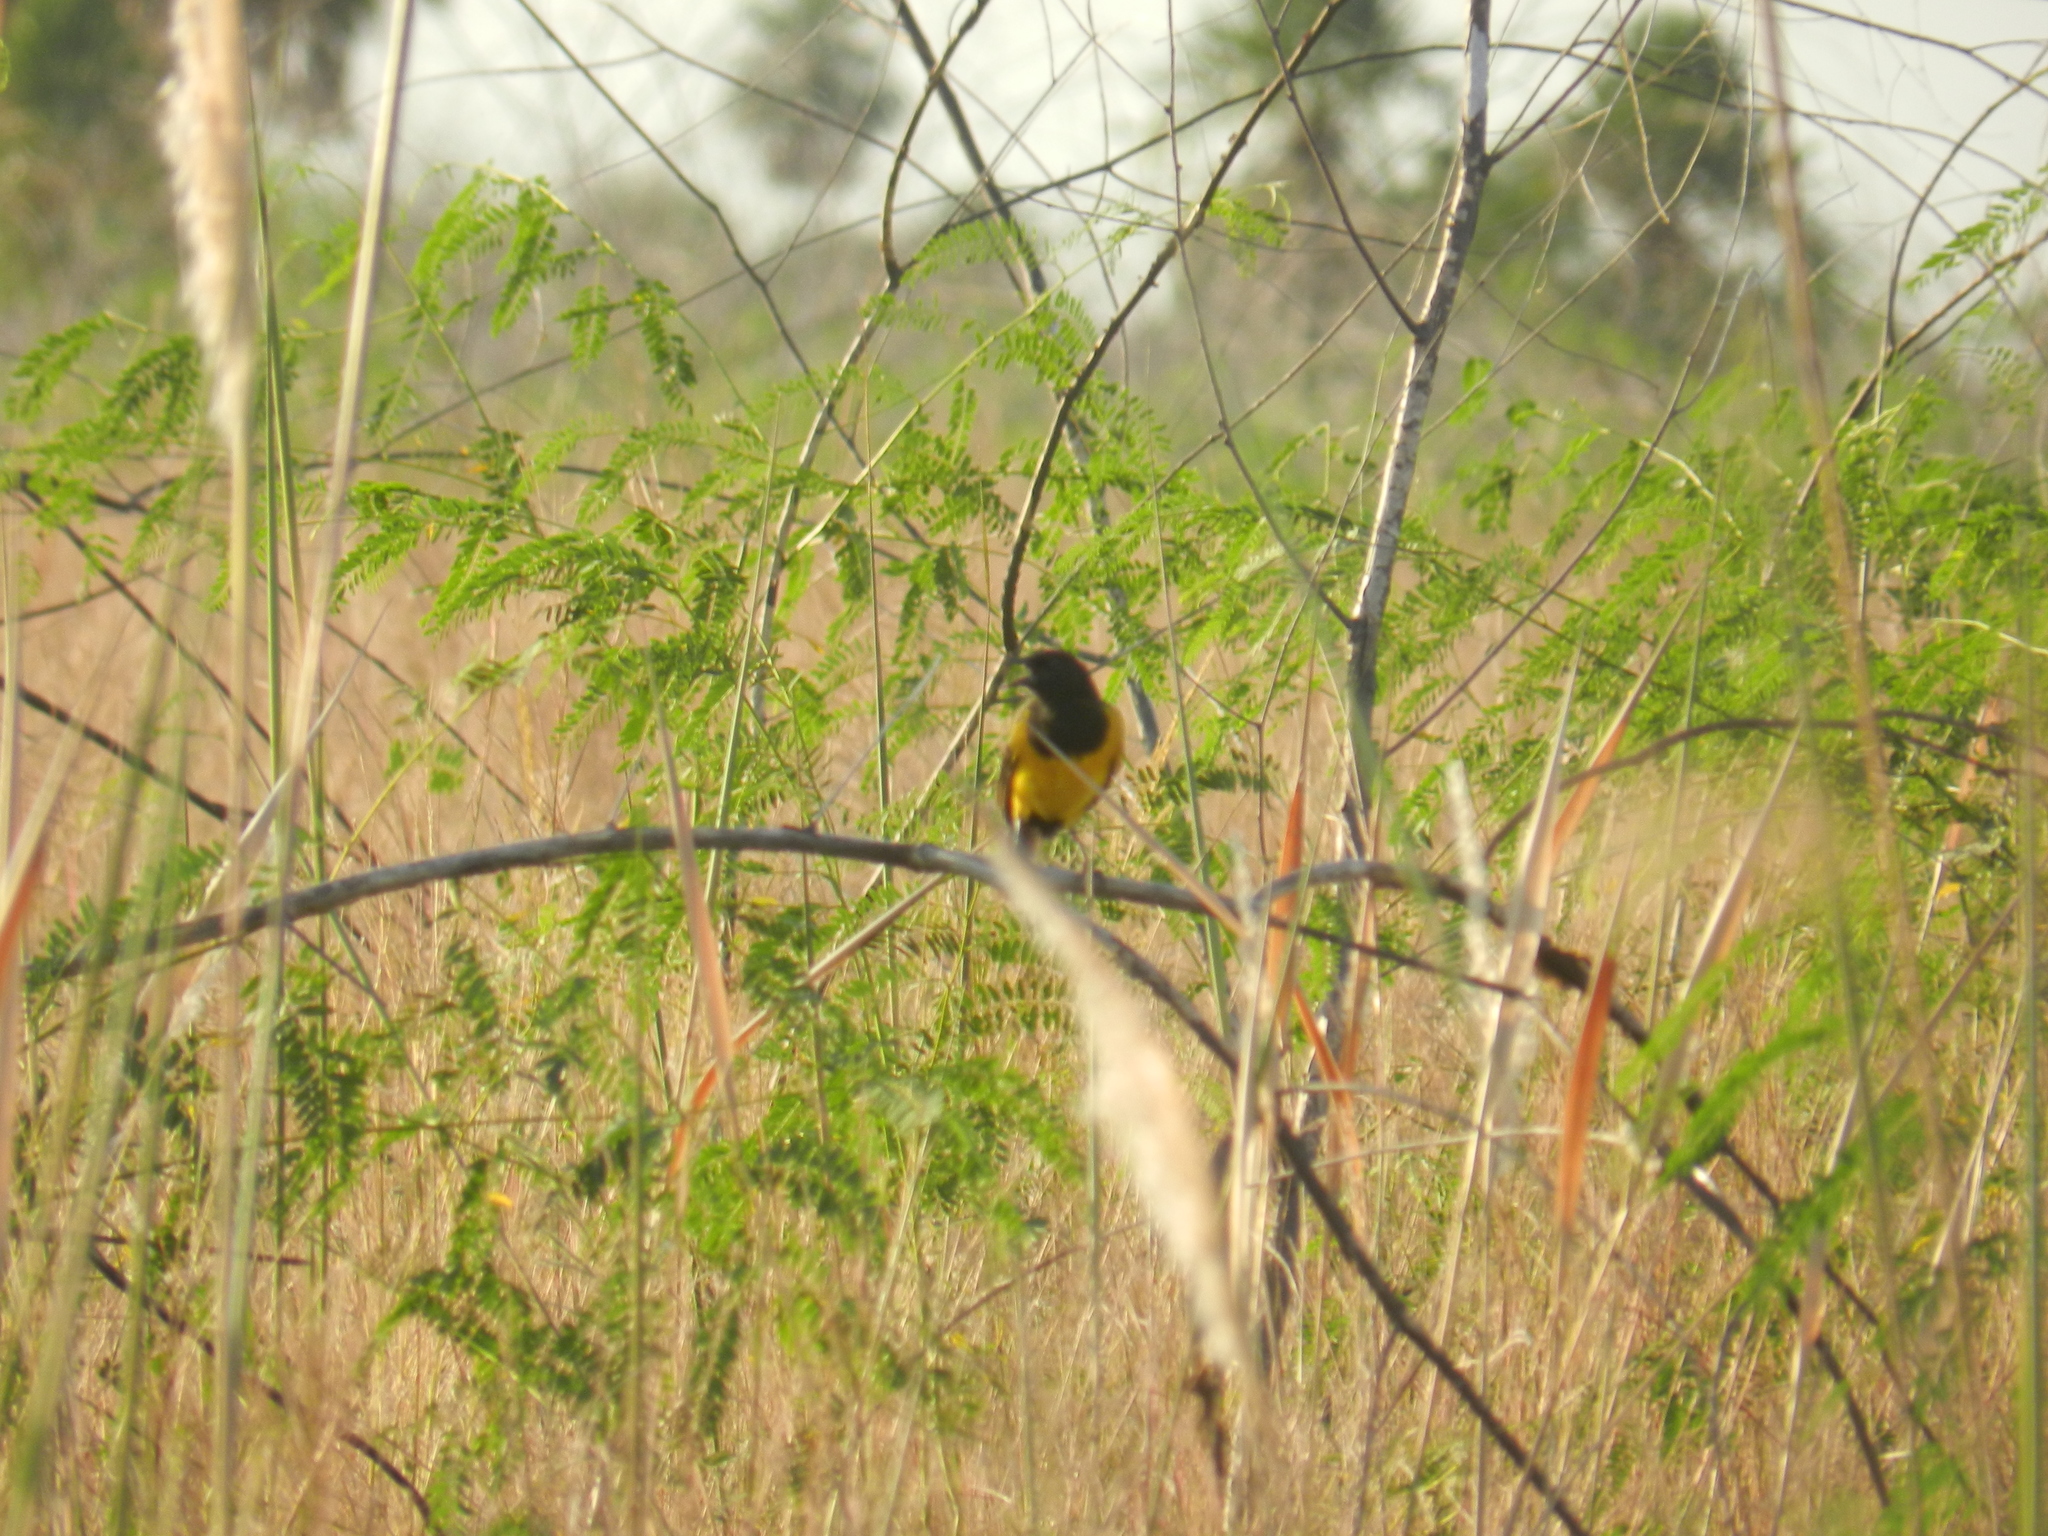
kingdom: Animalia
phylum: Chordata
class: Aves
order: Passeriformes
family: Icteridae
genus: Pseudoleistes
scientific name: Pseudoleistes guirahuro
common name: Yellow-rumped marshbird
